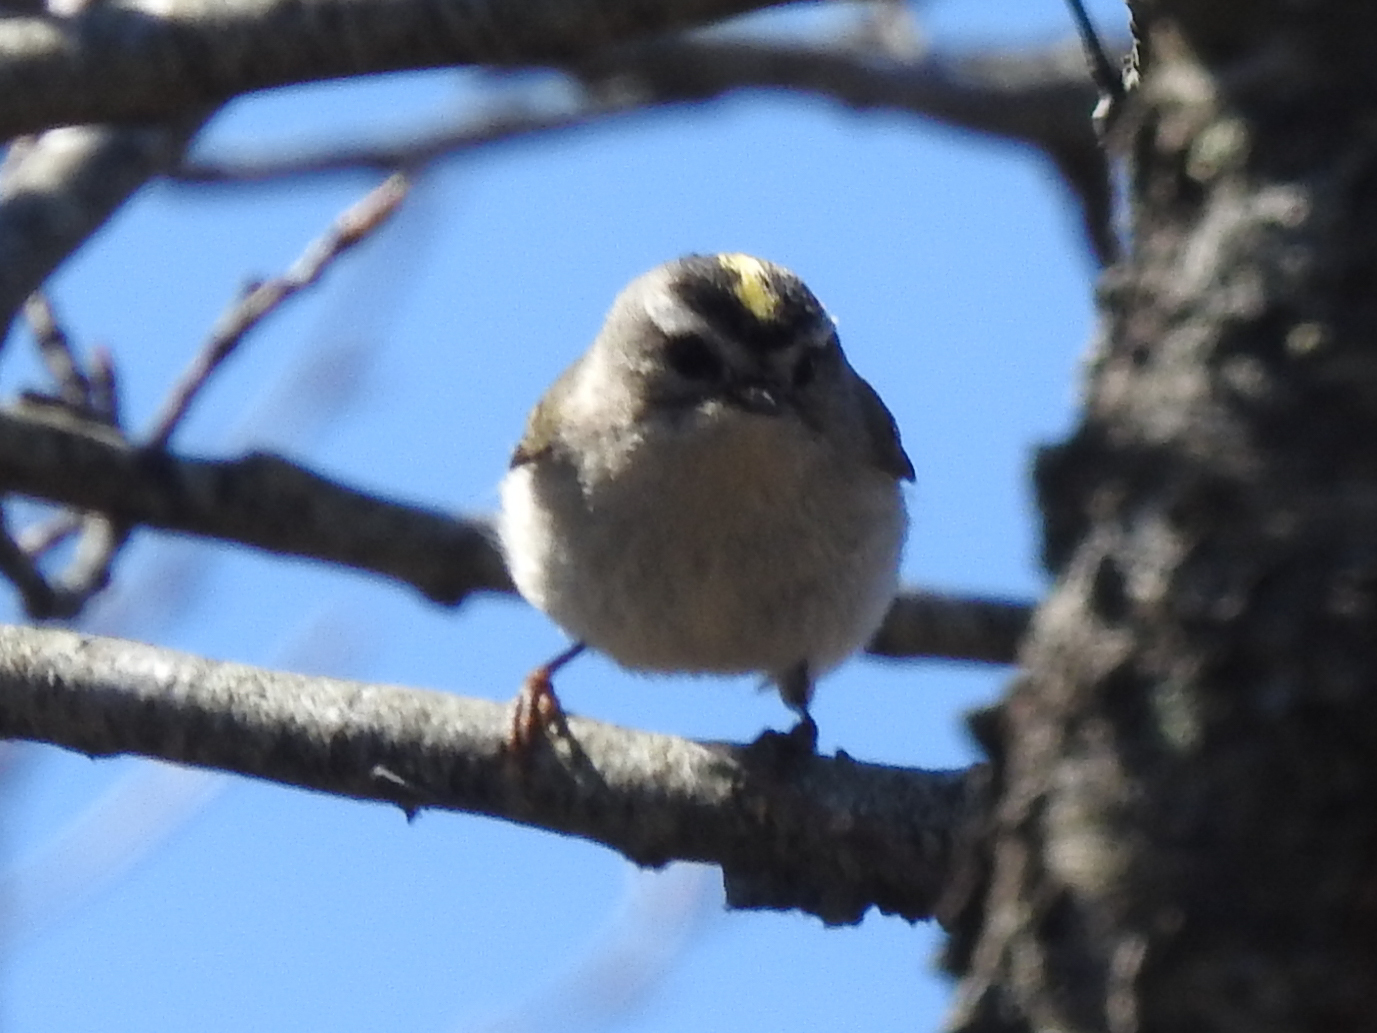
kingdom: Animalia
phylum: Chordata
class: Aves
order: Passeriformes
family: Regulidae
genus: Regulus
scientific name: Regulus satrapa
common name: Golden-crowned kinglet
